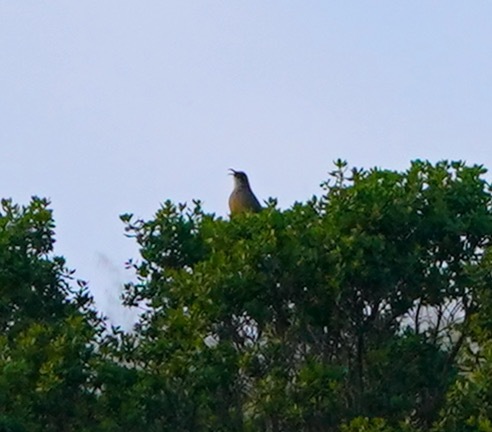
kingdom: Animalia
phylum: Chordata
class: Aves
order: Passeriformes
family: Mimidae
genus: Toxostoma
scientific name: Toxostoma redivivum
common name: California thrasher
